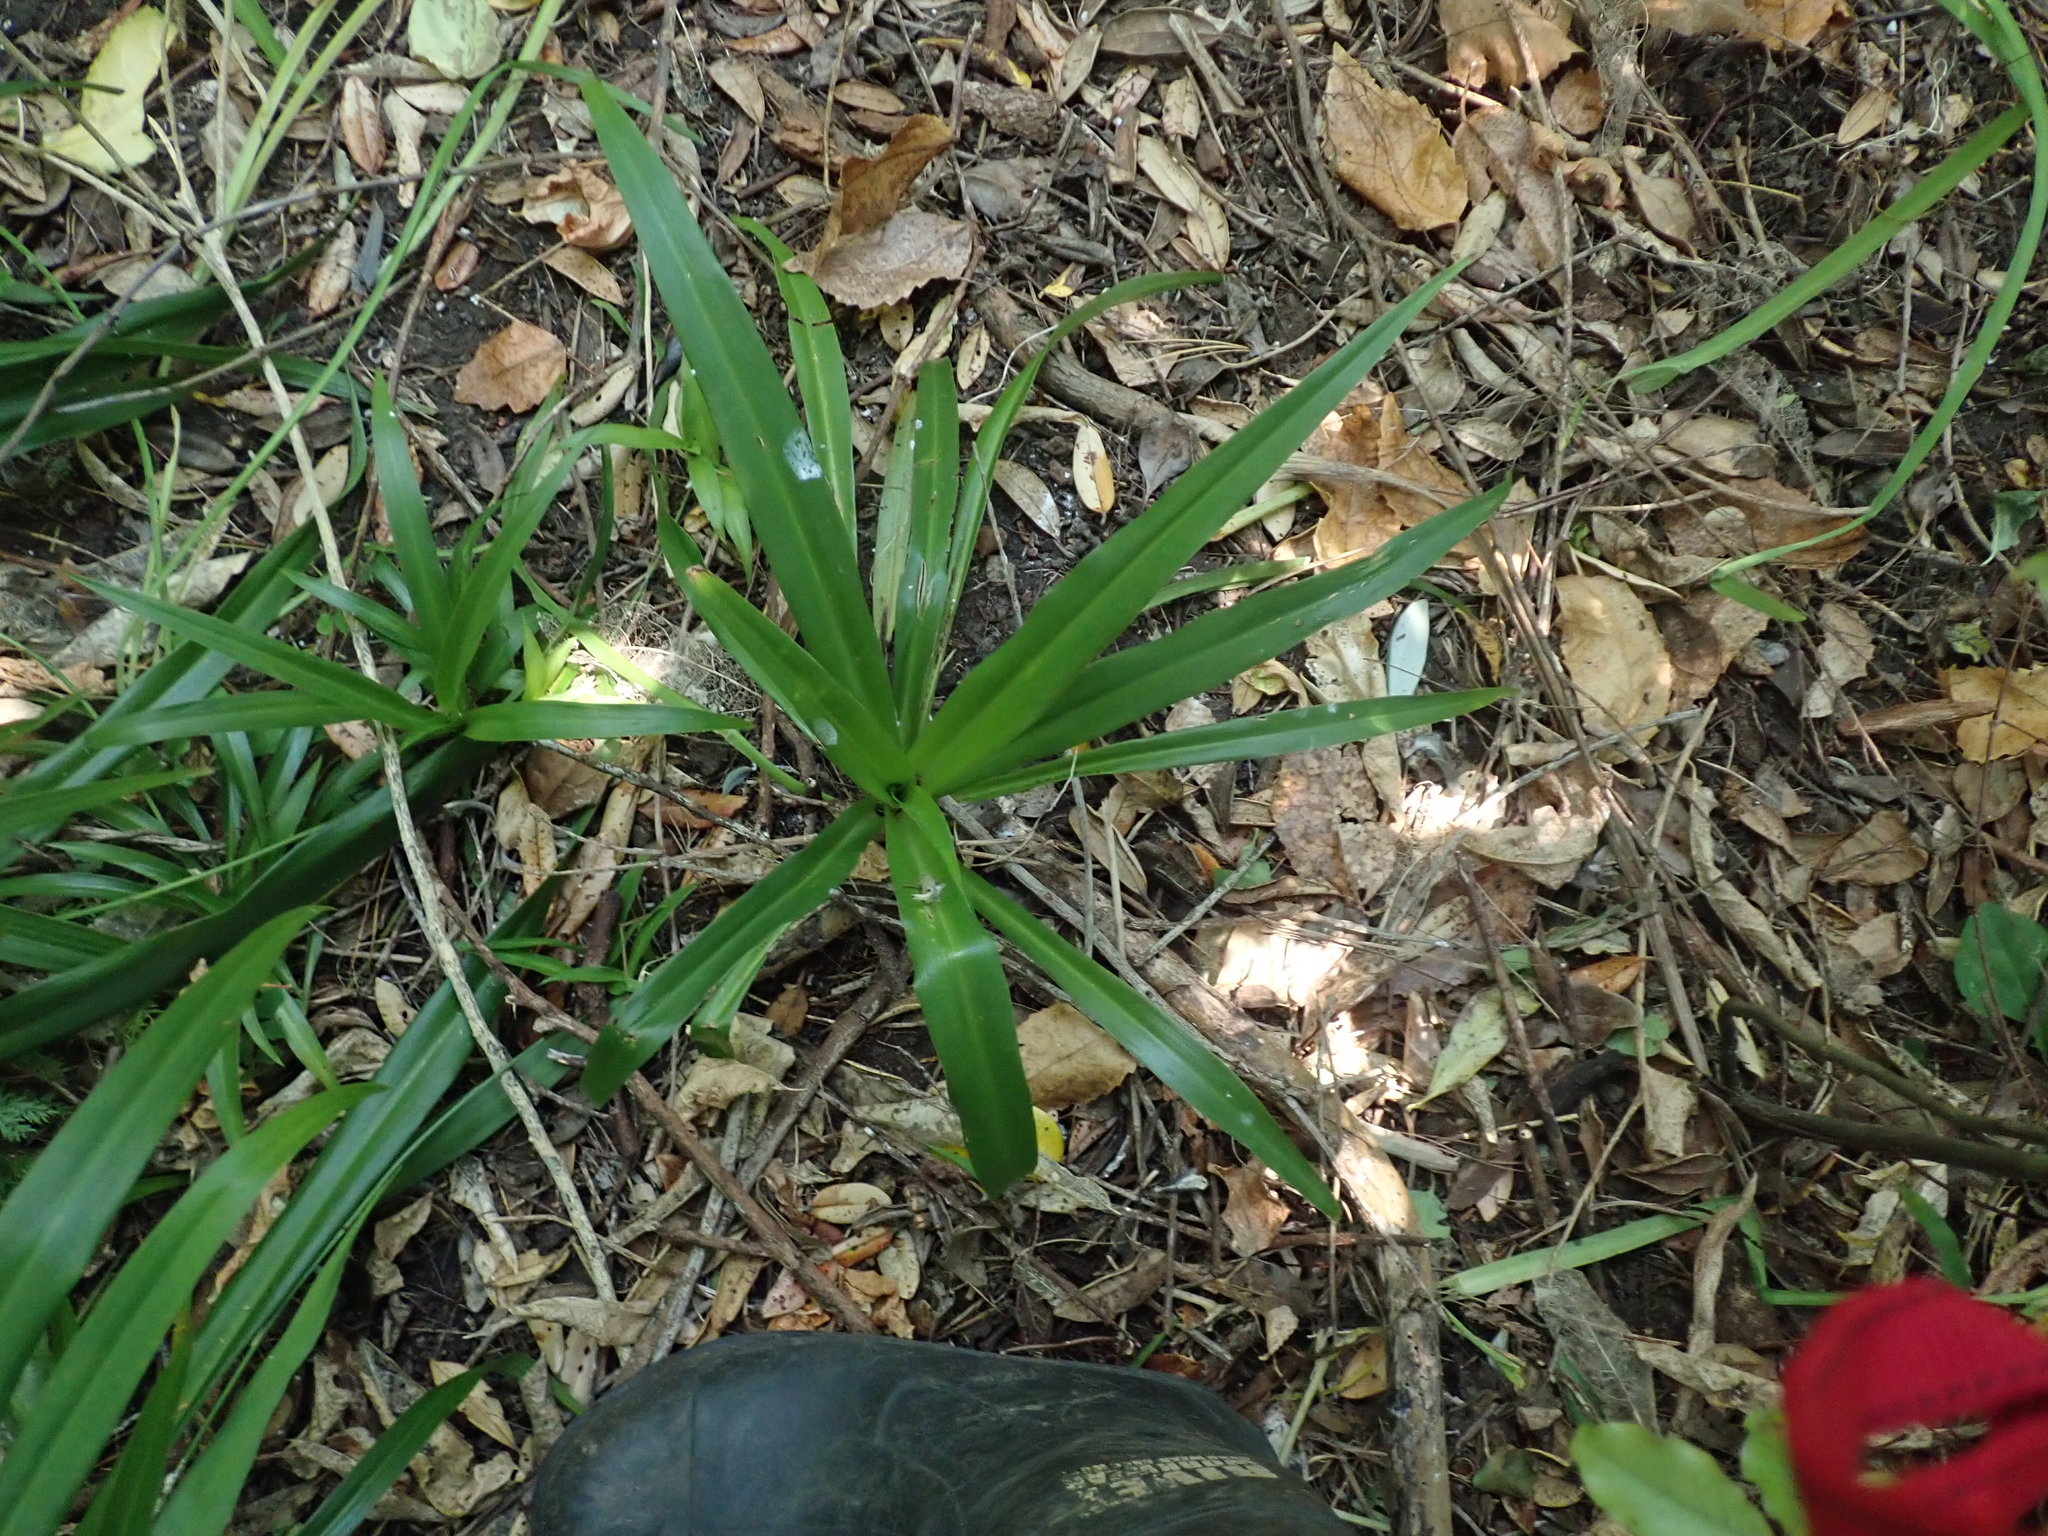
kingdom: Plantae
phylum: Tracheophyta
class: Liliopsida
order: Asparagales
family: Asparagaceae
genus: Chlorophytum
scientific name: Chlorophytum comosum
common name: Spider plant
